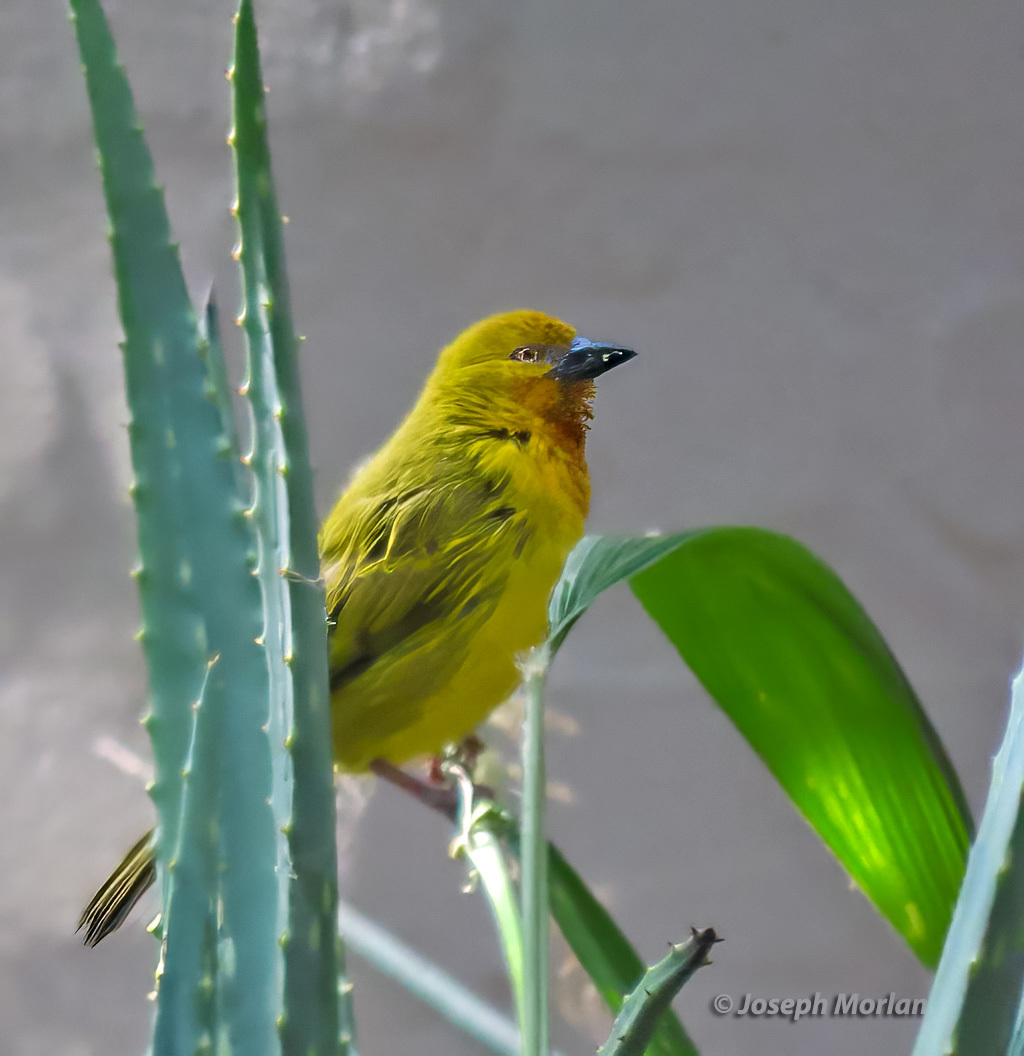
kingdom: Animalia
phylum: Chordata
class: Aves
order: Passeriformes
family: Ploceidae
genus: Ploceus
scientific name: Ploceus xanthops
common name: Holub's golden weaver
